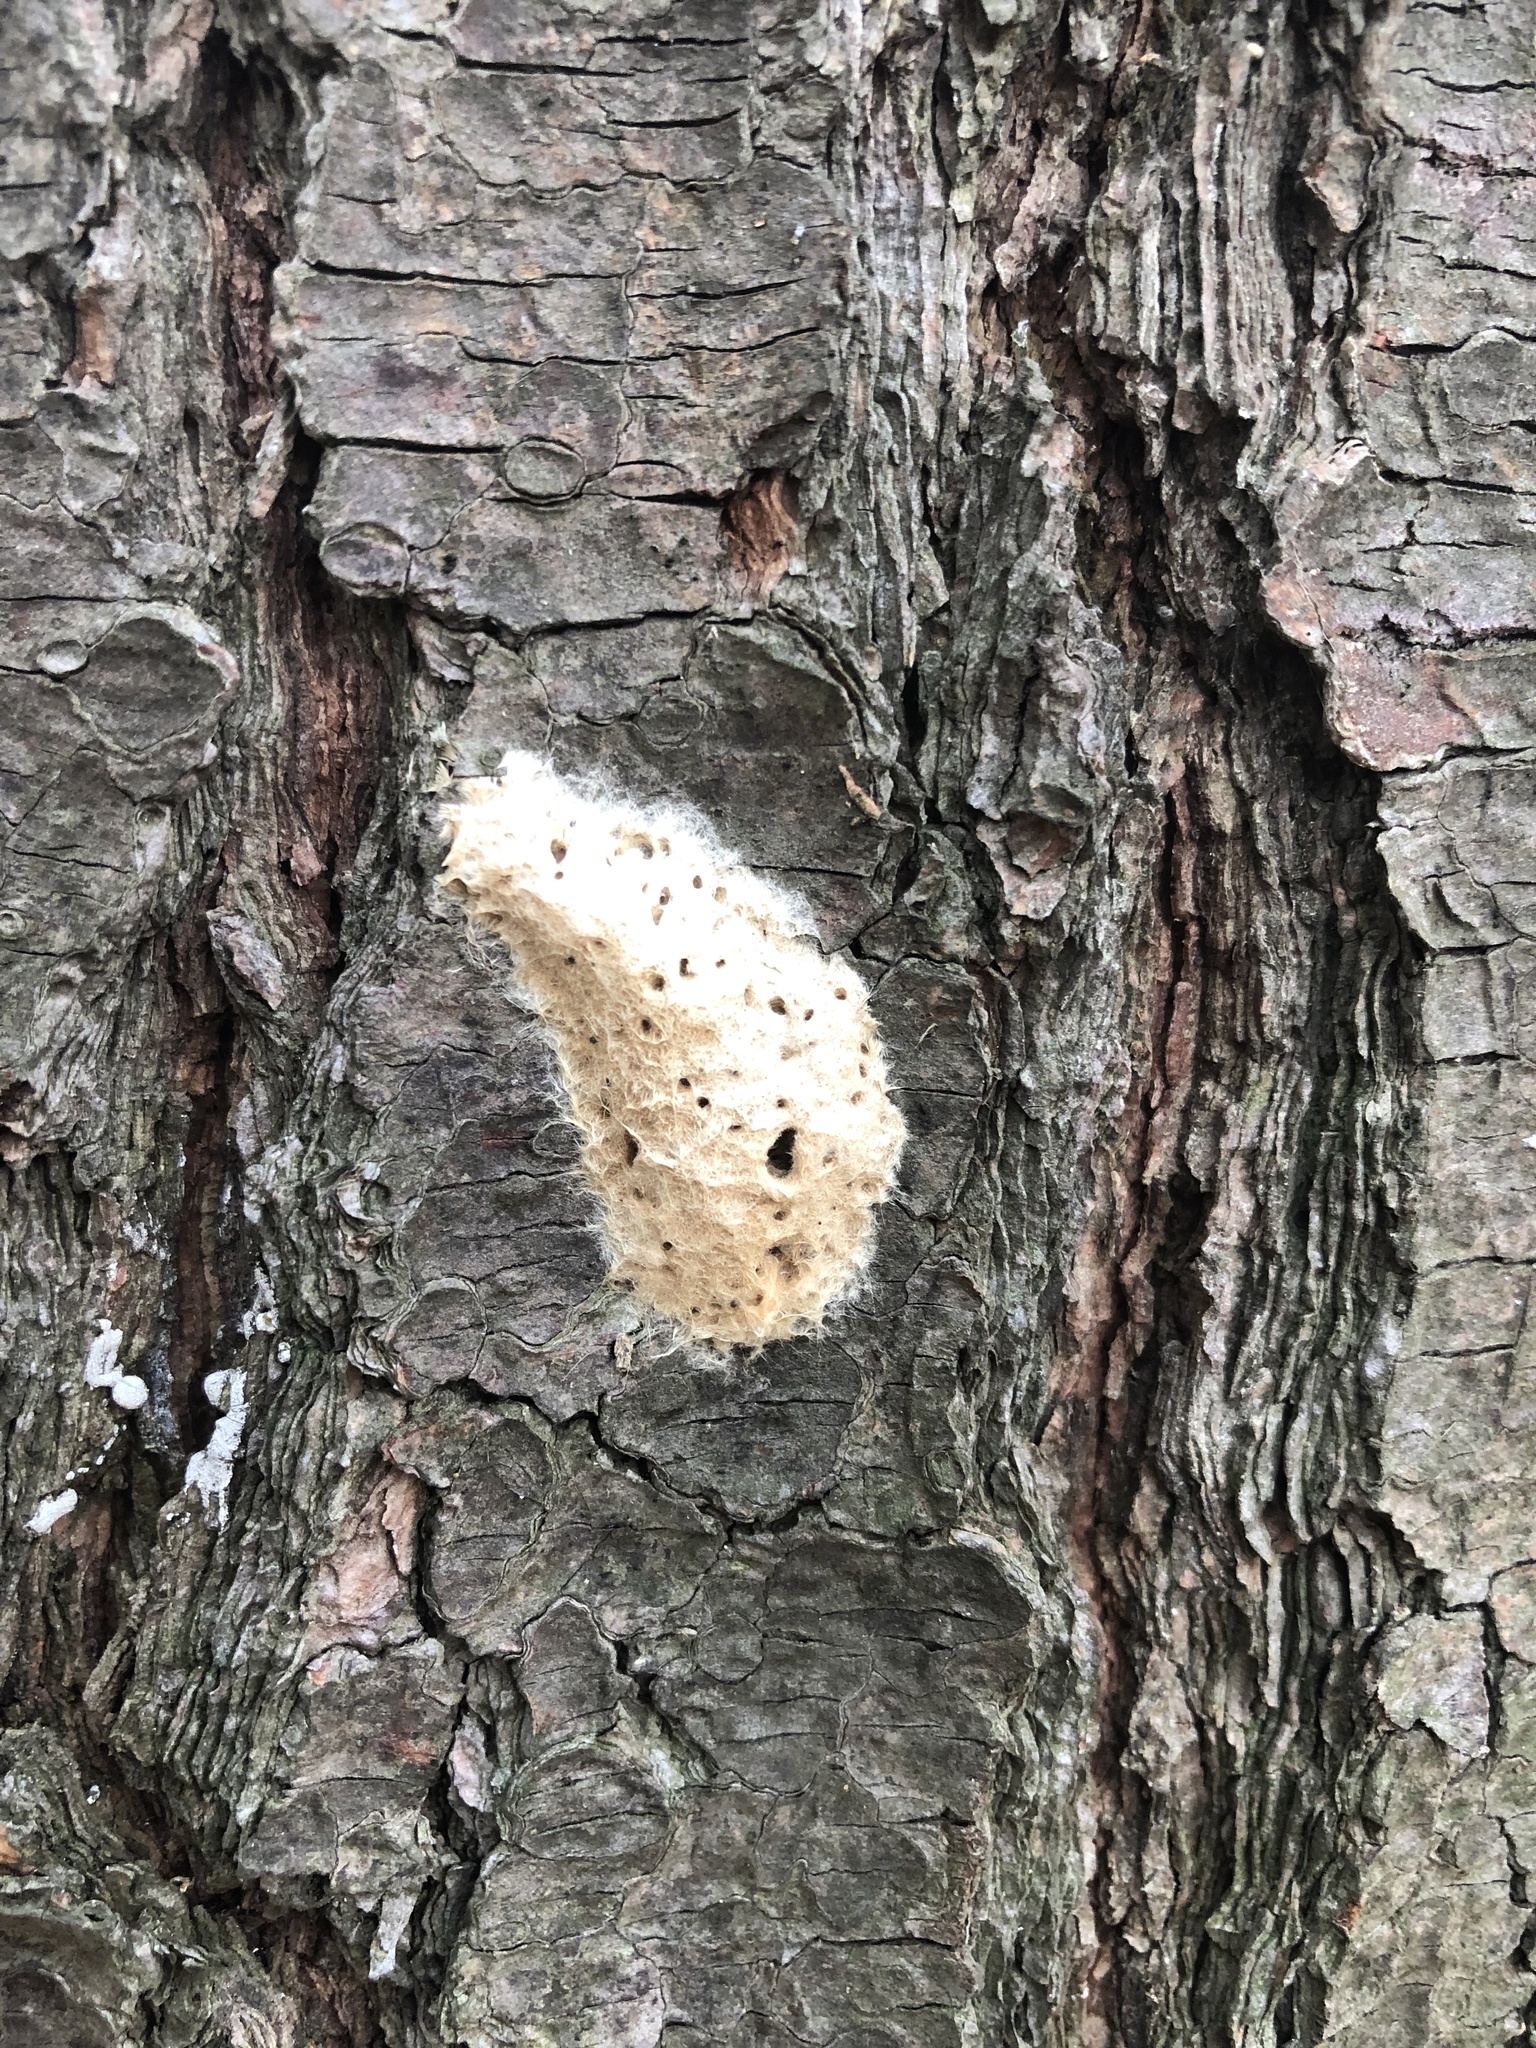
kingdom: Animalia
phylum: Arthropoda
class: Insecta
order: Lepidoptera
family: Erebidae
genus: Lymantria
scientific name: Lymantria dispar
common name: Gypsy moth
